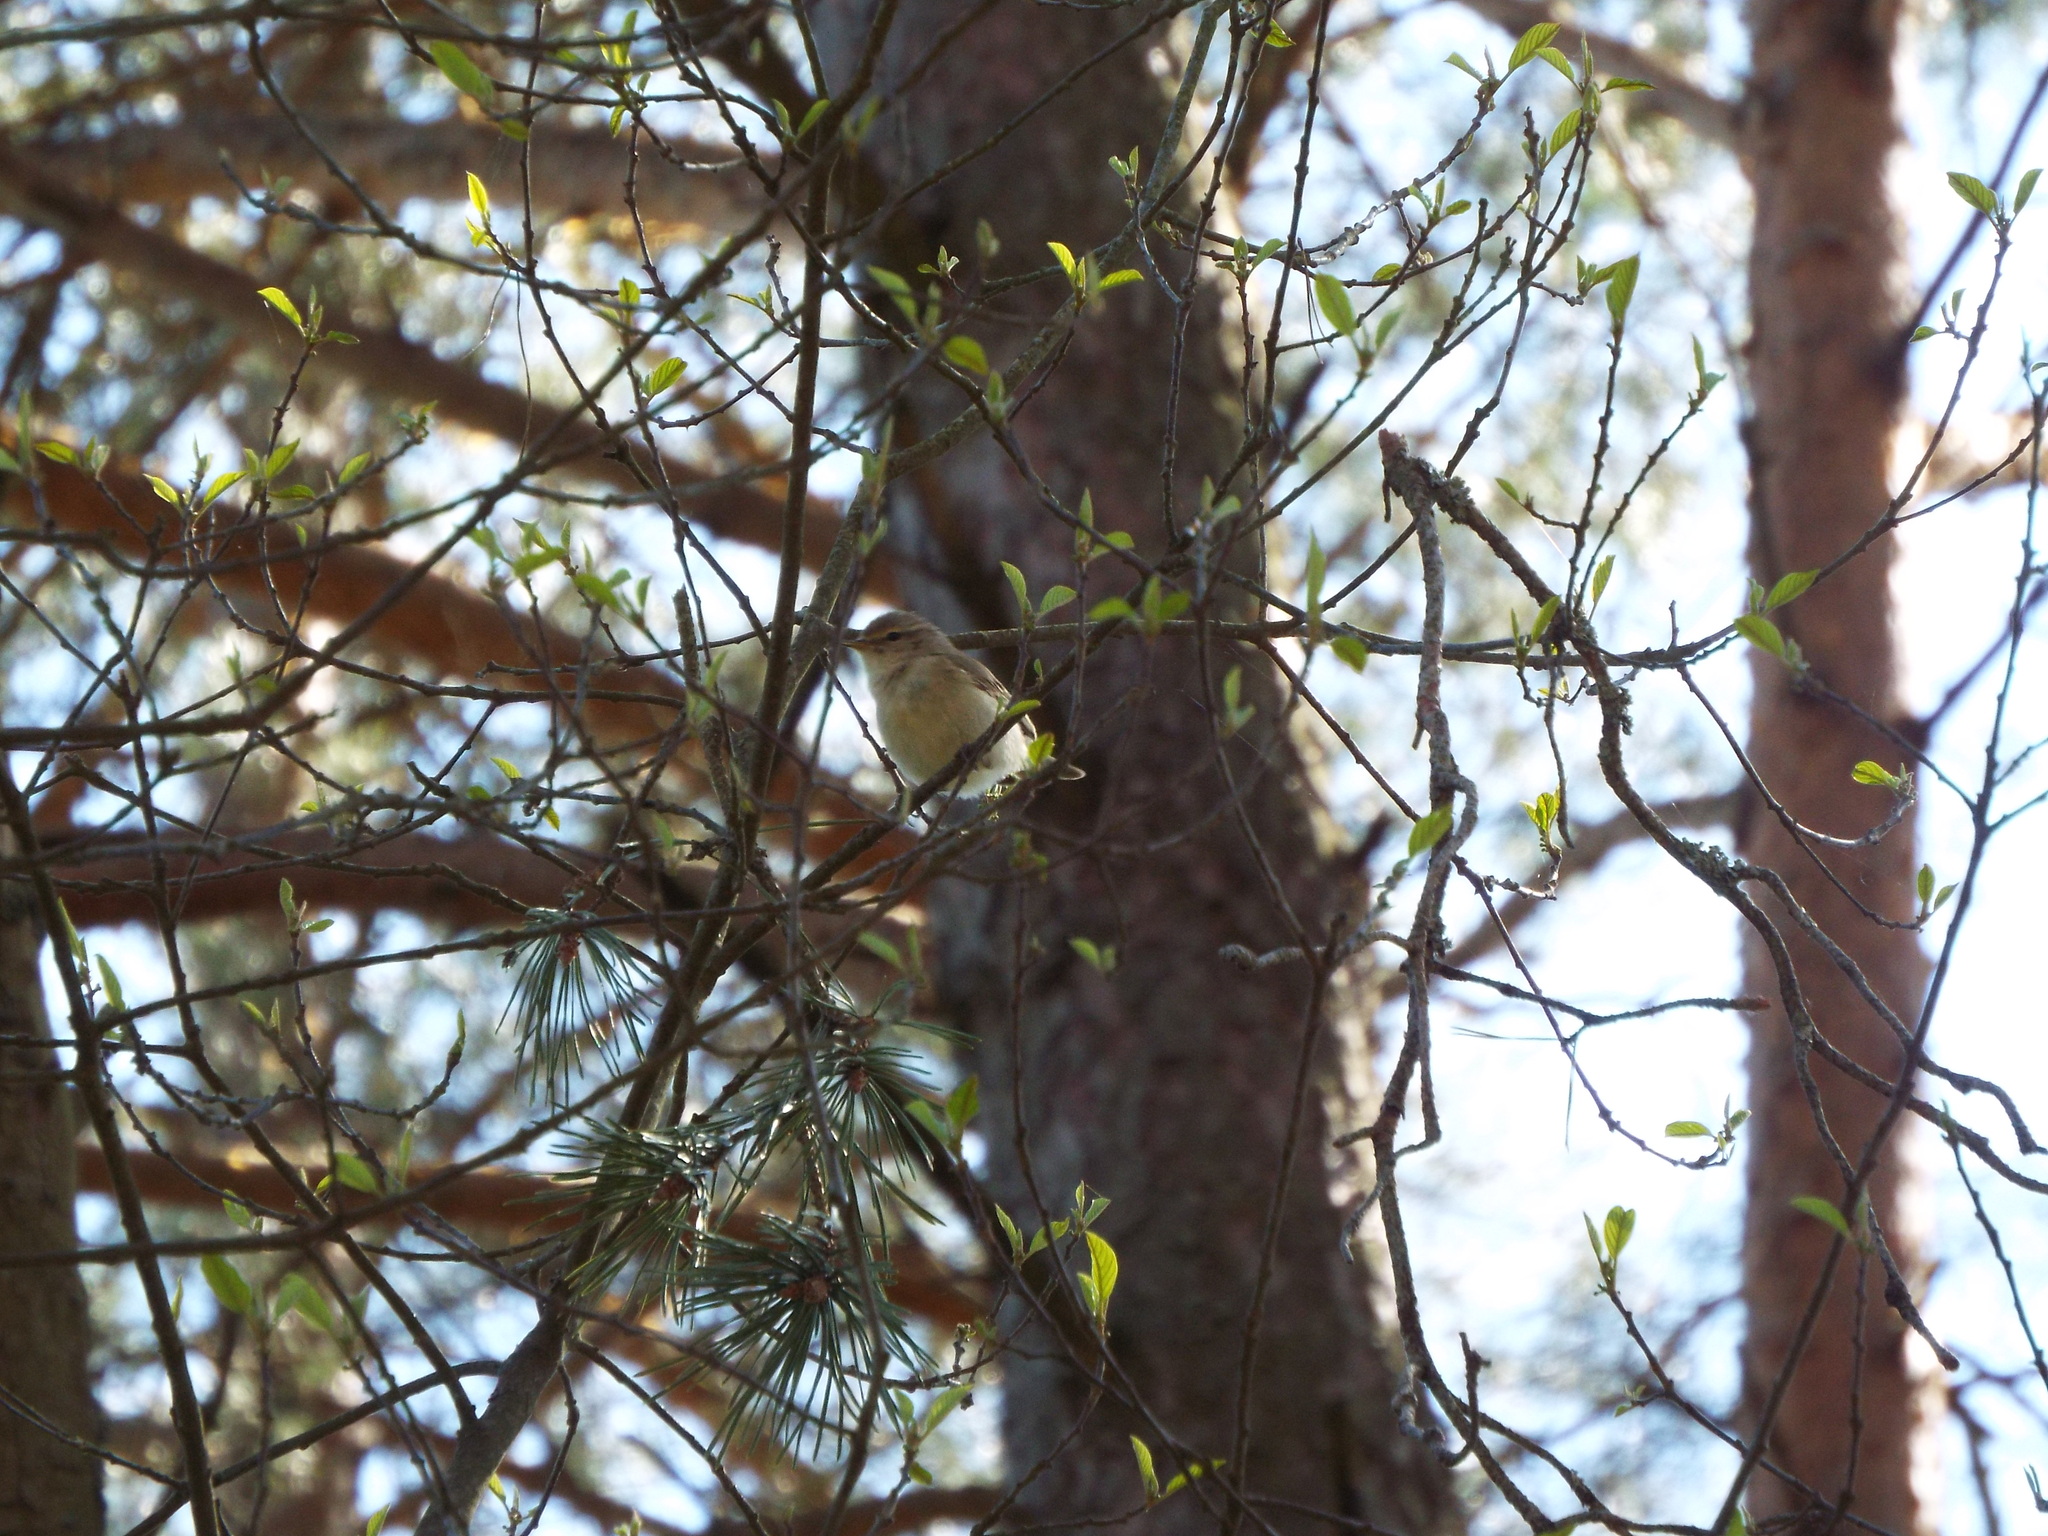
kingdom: Animalia
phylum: Chordata
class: Aves
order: Passeriformes
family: Phylloscopidae
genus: Phylloscopus
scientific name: Phylloscopus collybita
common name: Common chiffchaff
